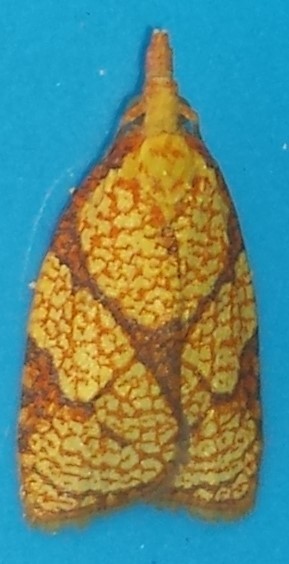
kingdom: Animalia
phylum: Arthropoda
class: Insecta
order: Lepidoptera
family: Tortricidae
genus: Cenopis
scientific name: Cenopis reticulatana
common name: Reticulated fruitworm moth
